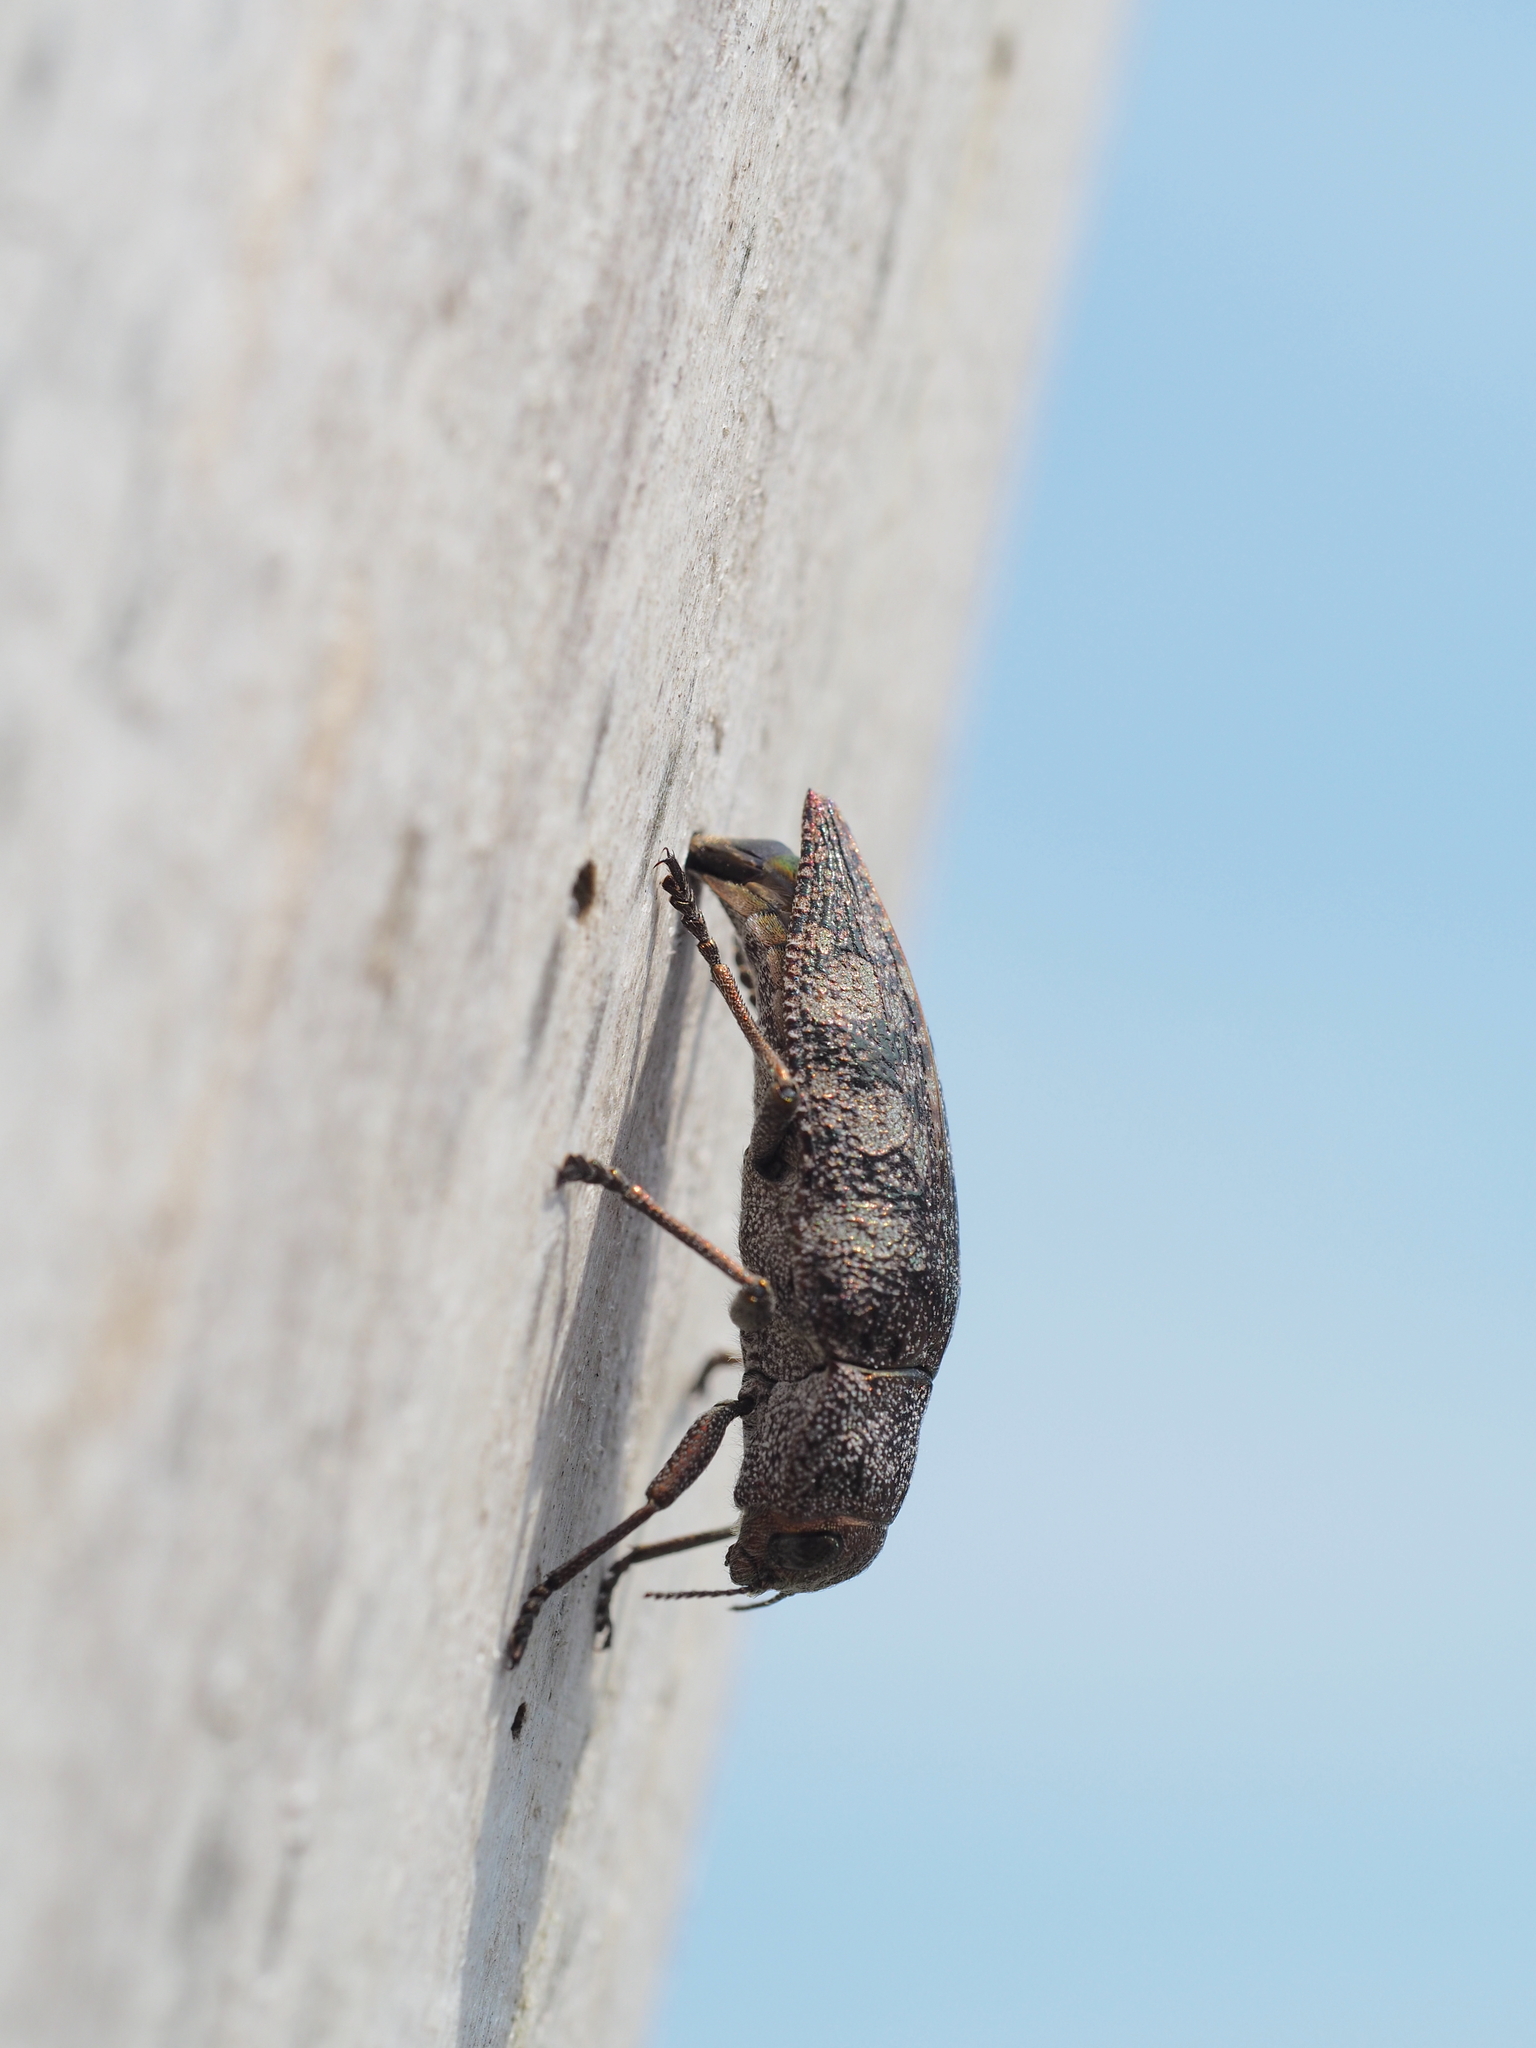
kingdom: Animalia
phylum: Arthropoda
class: Insecta
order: Coleoptera
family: Buprestidae
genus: Dicerca
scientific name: Dicerca aenea
